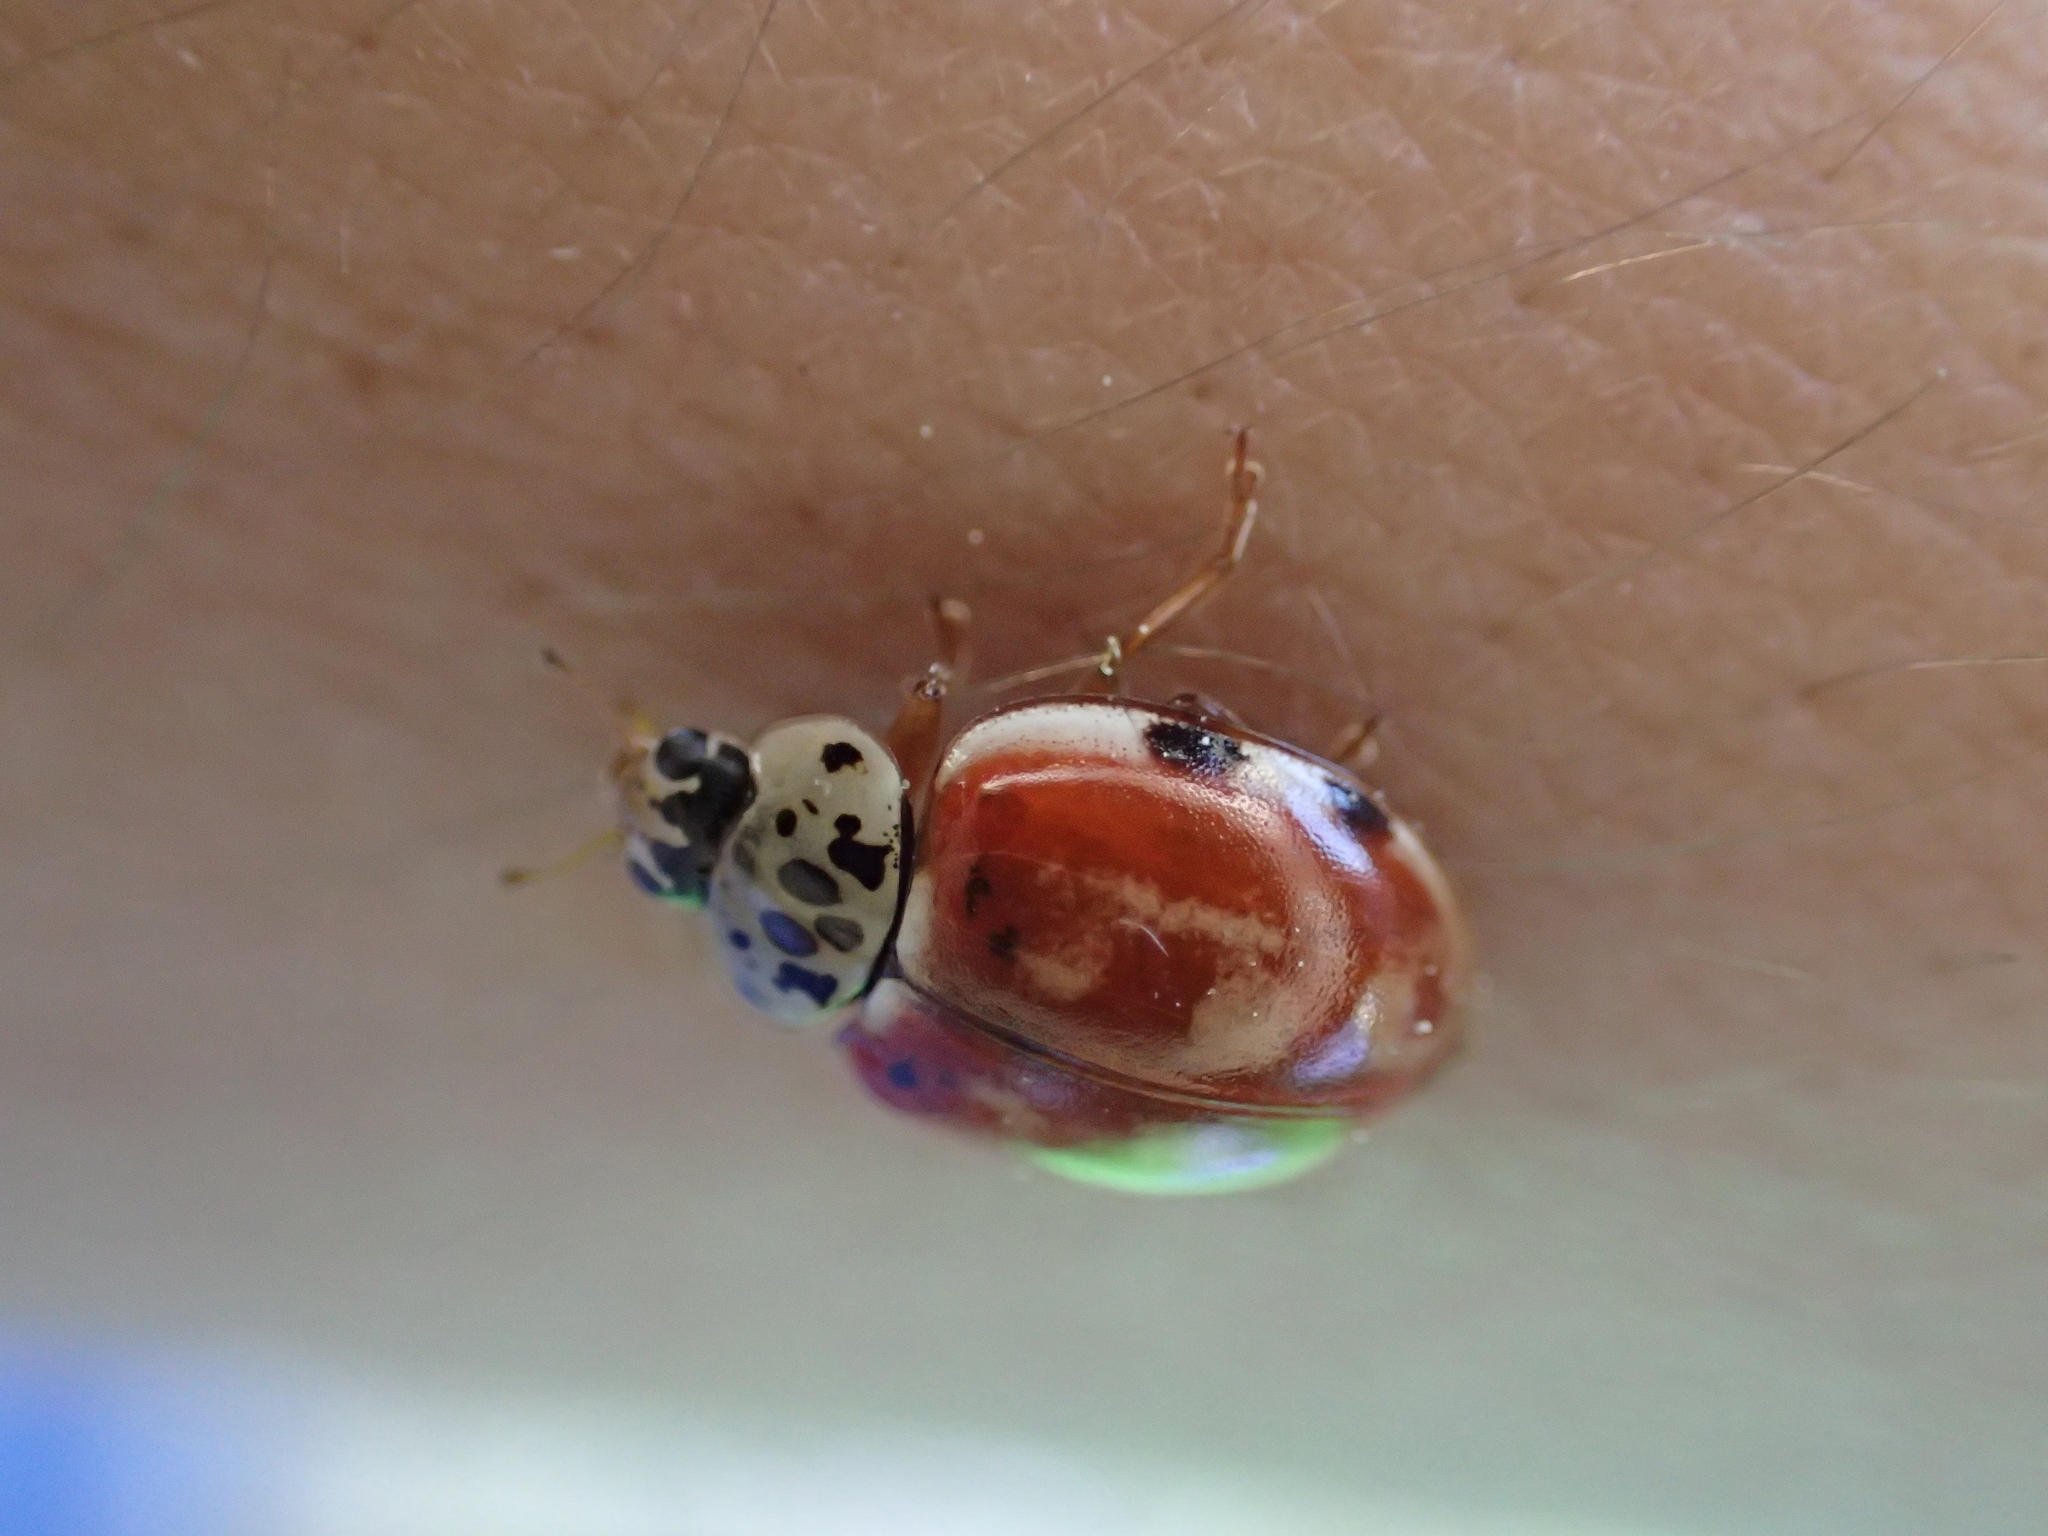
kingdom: Animalia
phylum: Arthropoda
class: Insecta
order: Coleoptera
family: Coccinellidae
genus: Harmonia
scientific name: Harmonia quadripunctata
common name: Cream-streaked ladybird
